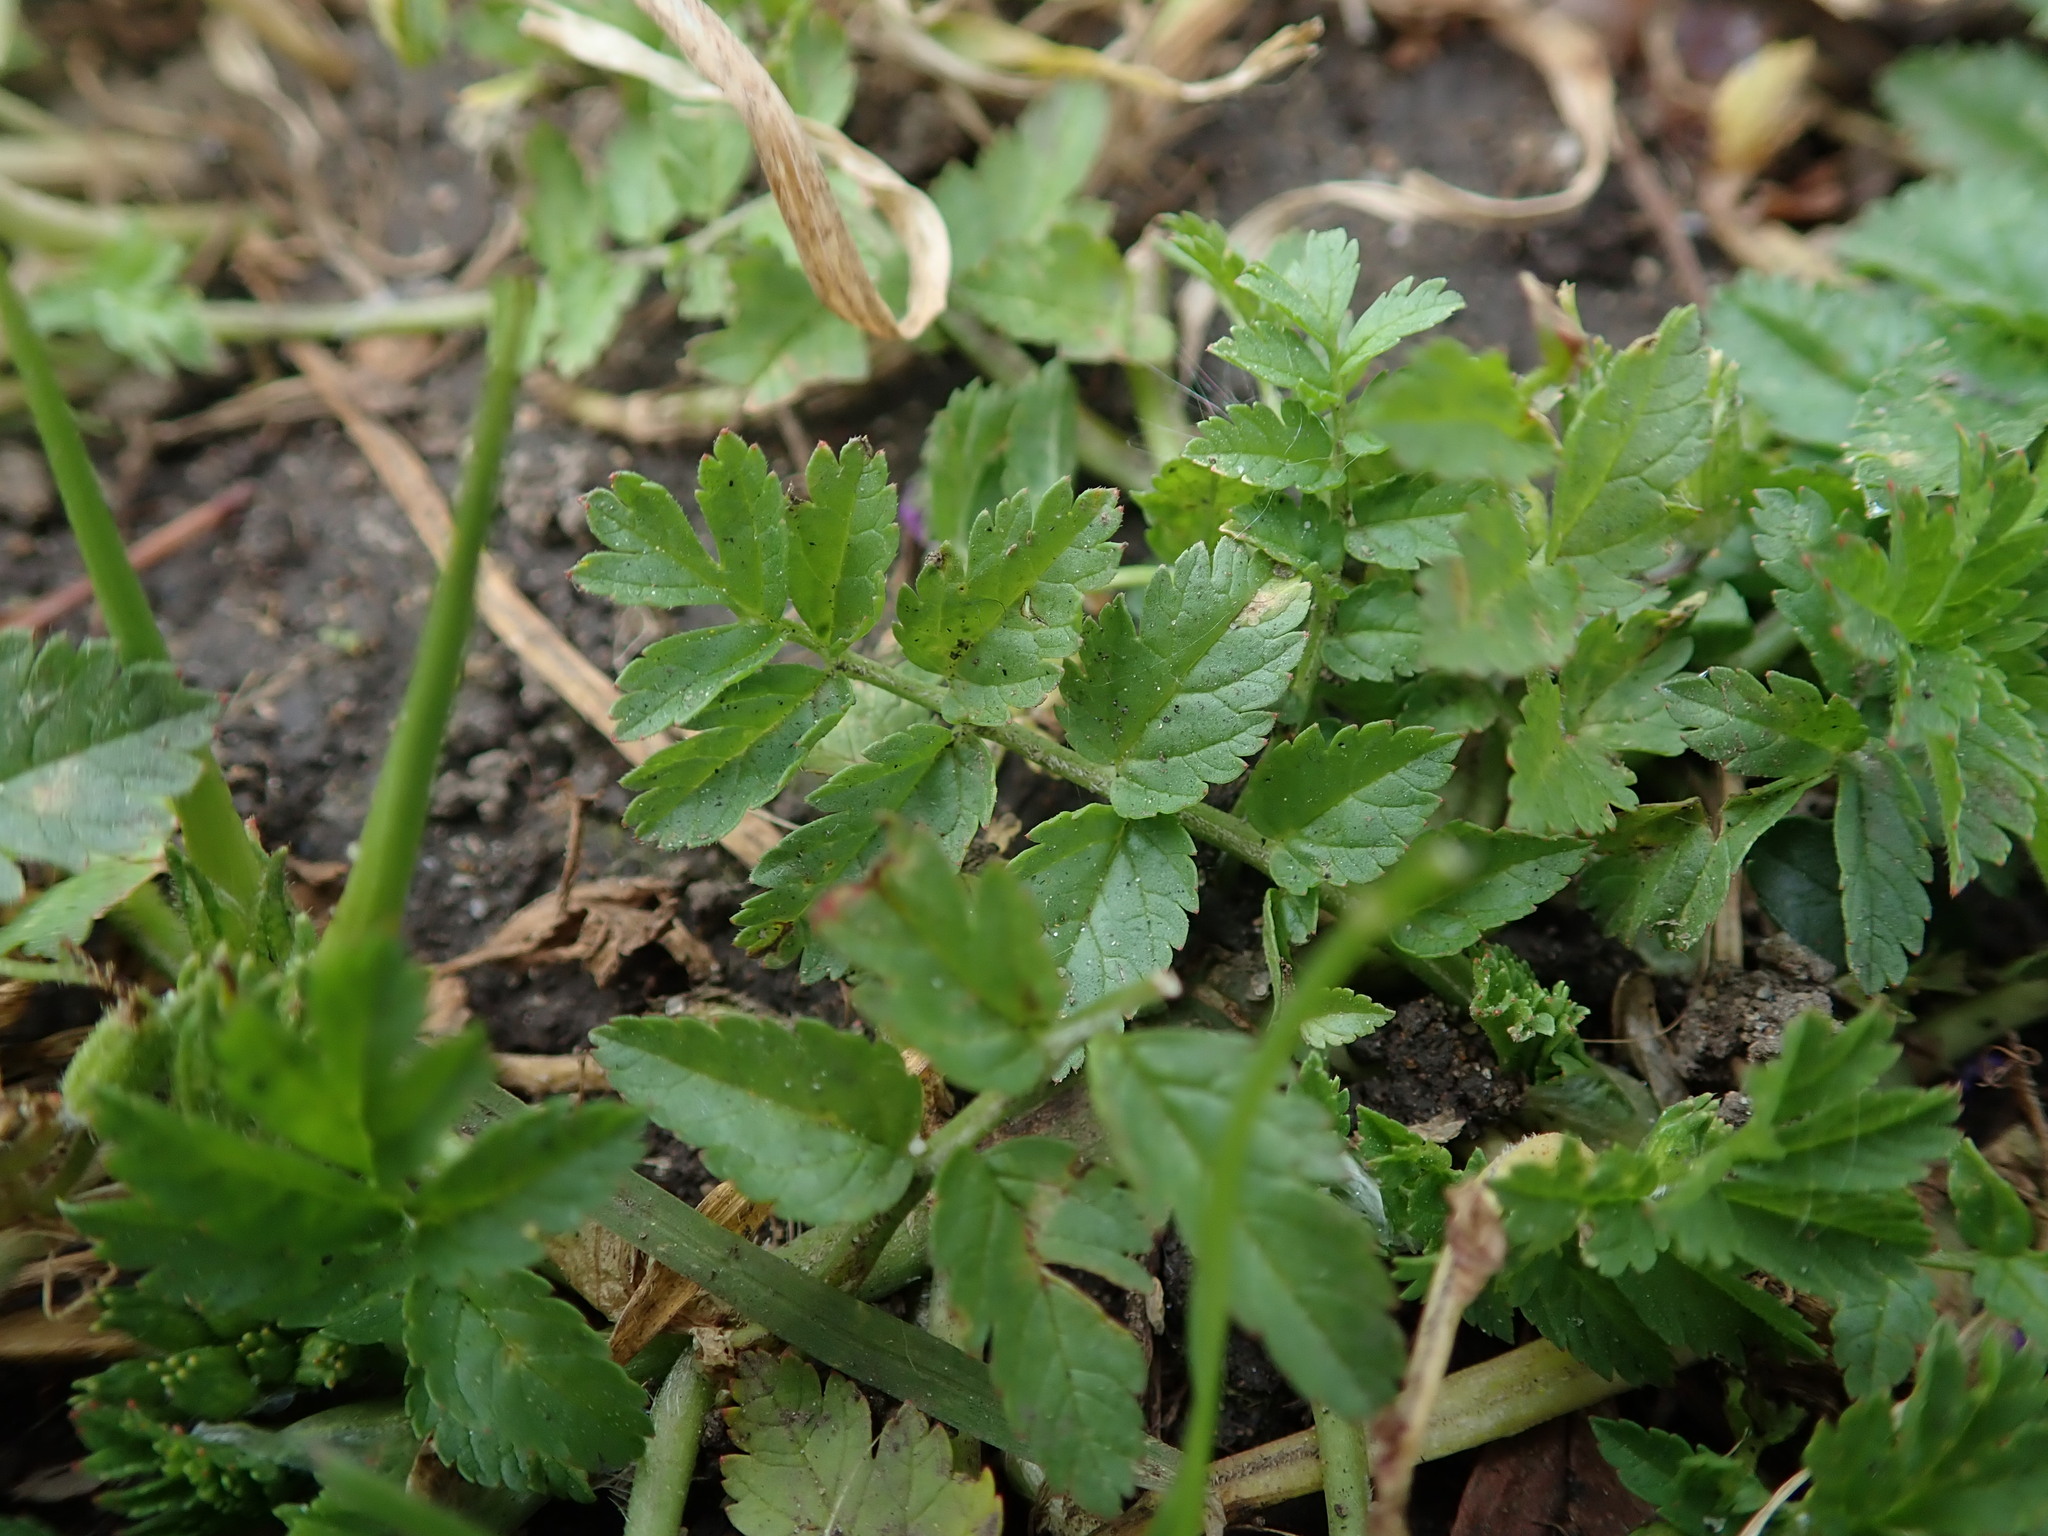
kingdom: Plantae
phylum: Tracheophyta
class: Magnoliopsida
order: Geraniales
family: Geraniaceae
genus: Erodium
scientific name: Erodium moschatum
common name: Musk stork's-bill
